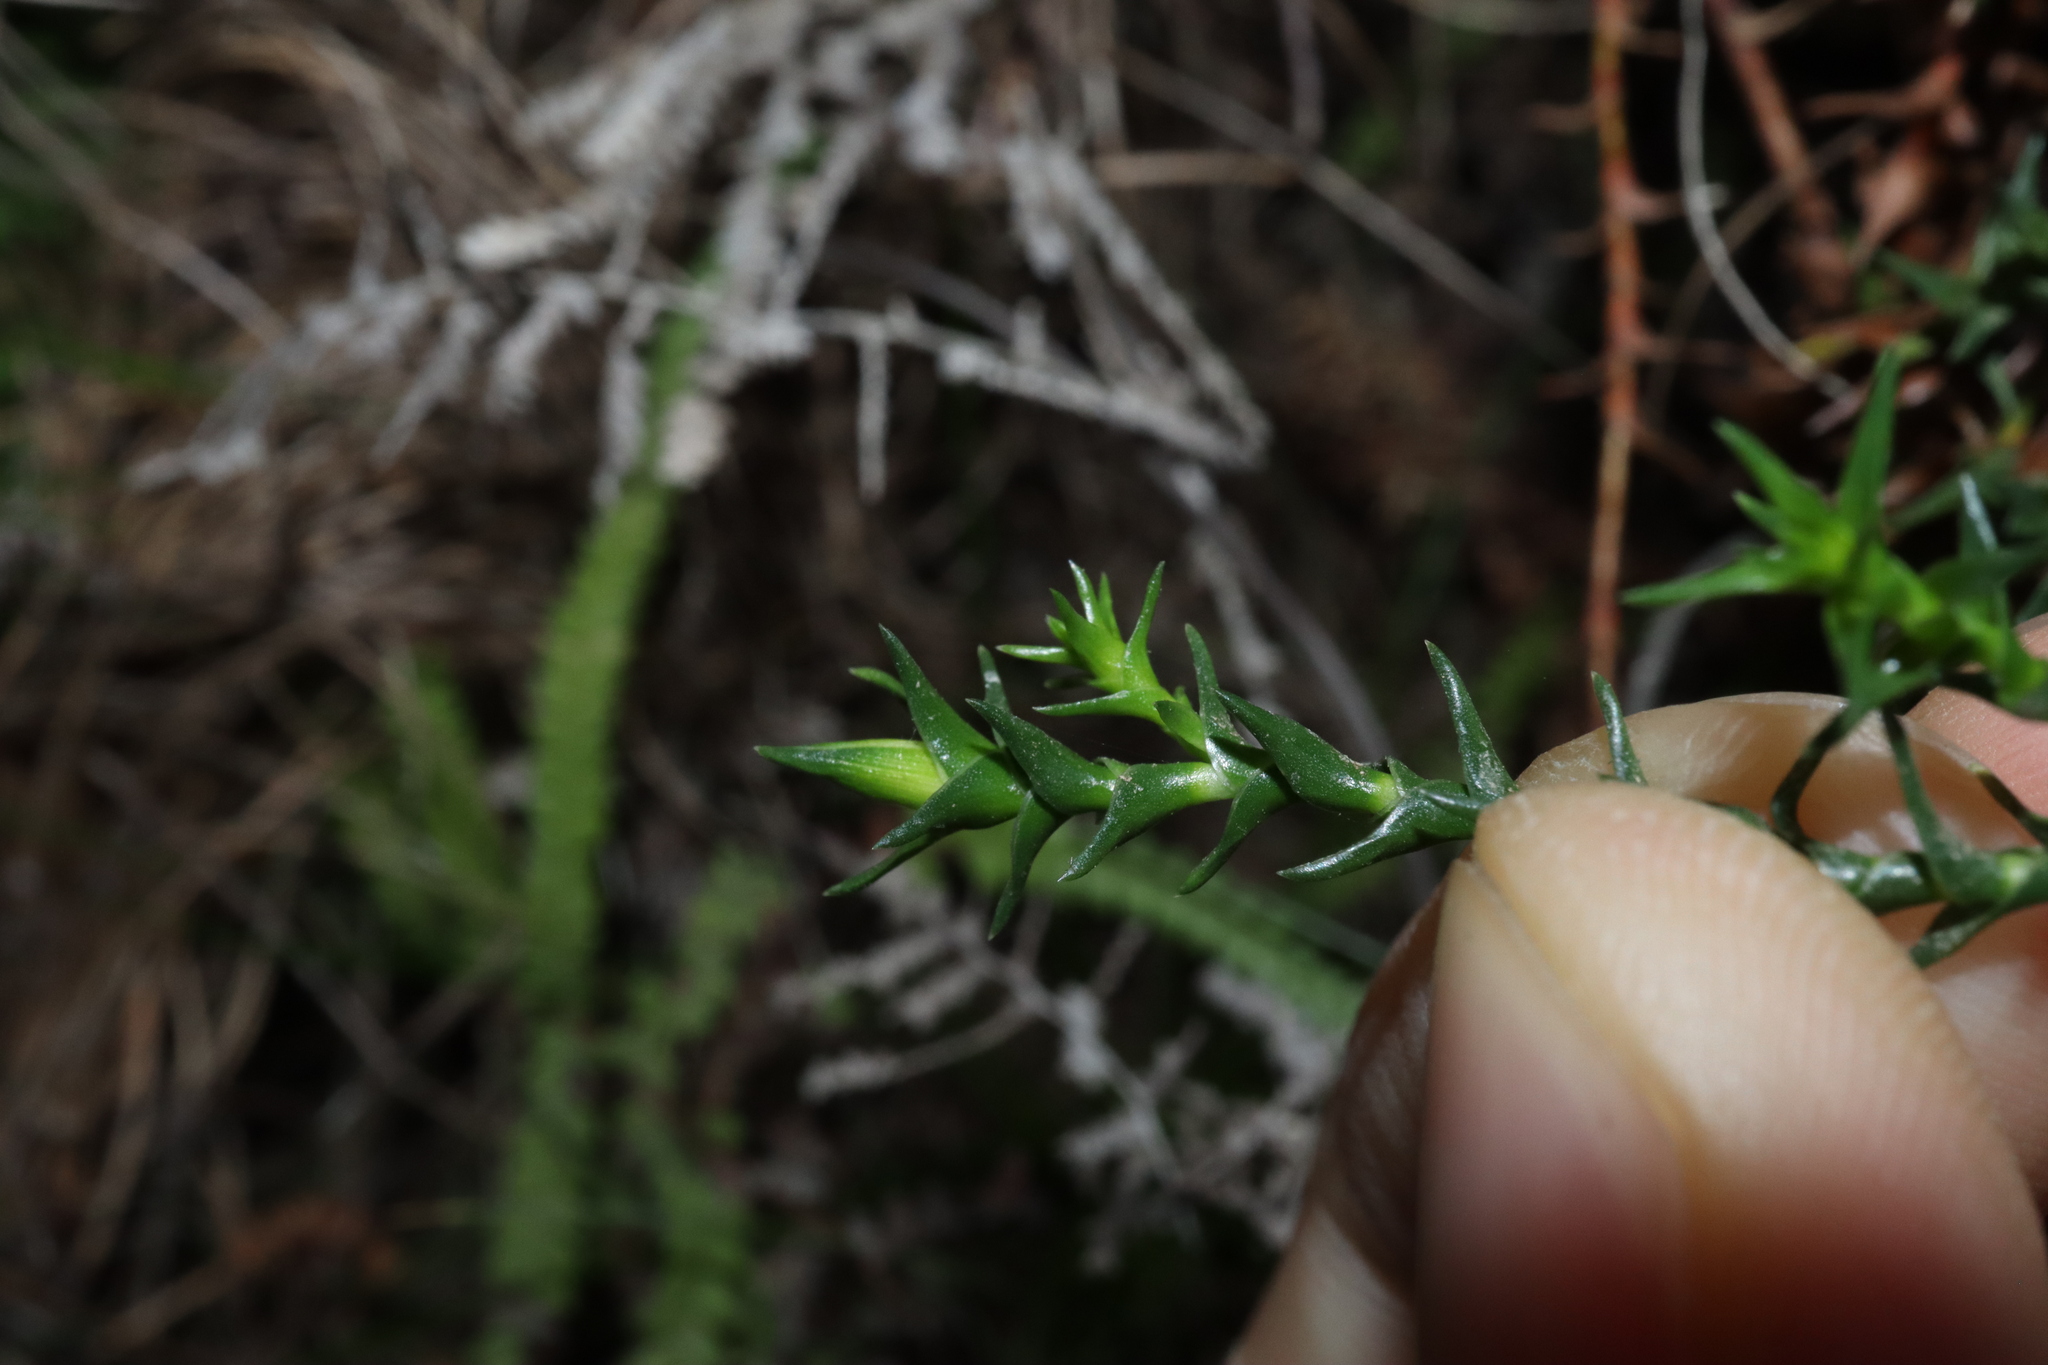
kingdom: Plantae
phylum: Tracheophyta
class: Magnoliopsida
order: Ericales
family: Ericaceae
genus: Sprengelia
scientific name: Sprengelia monticola
